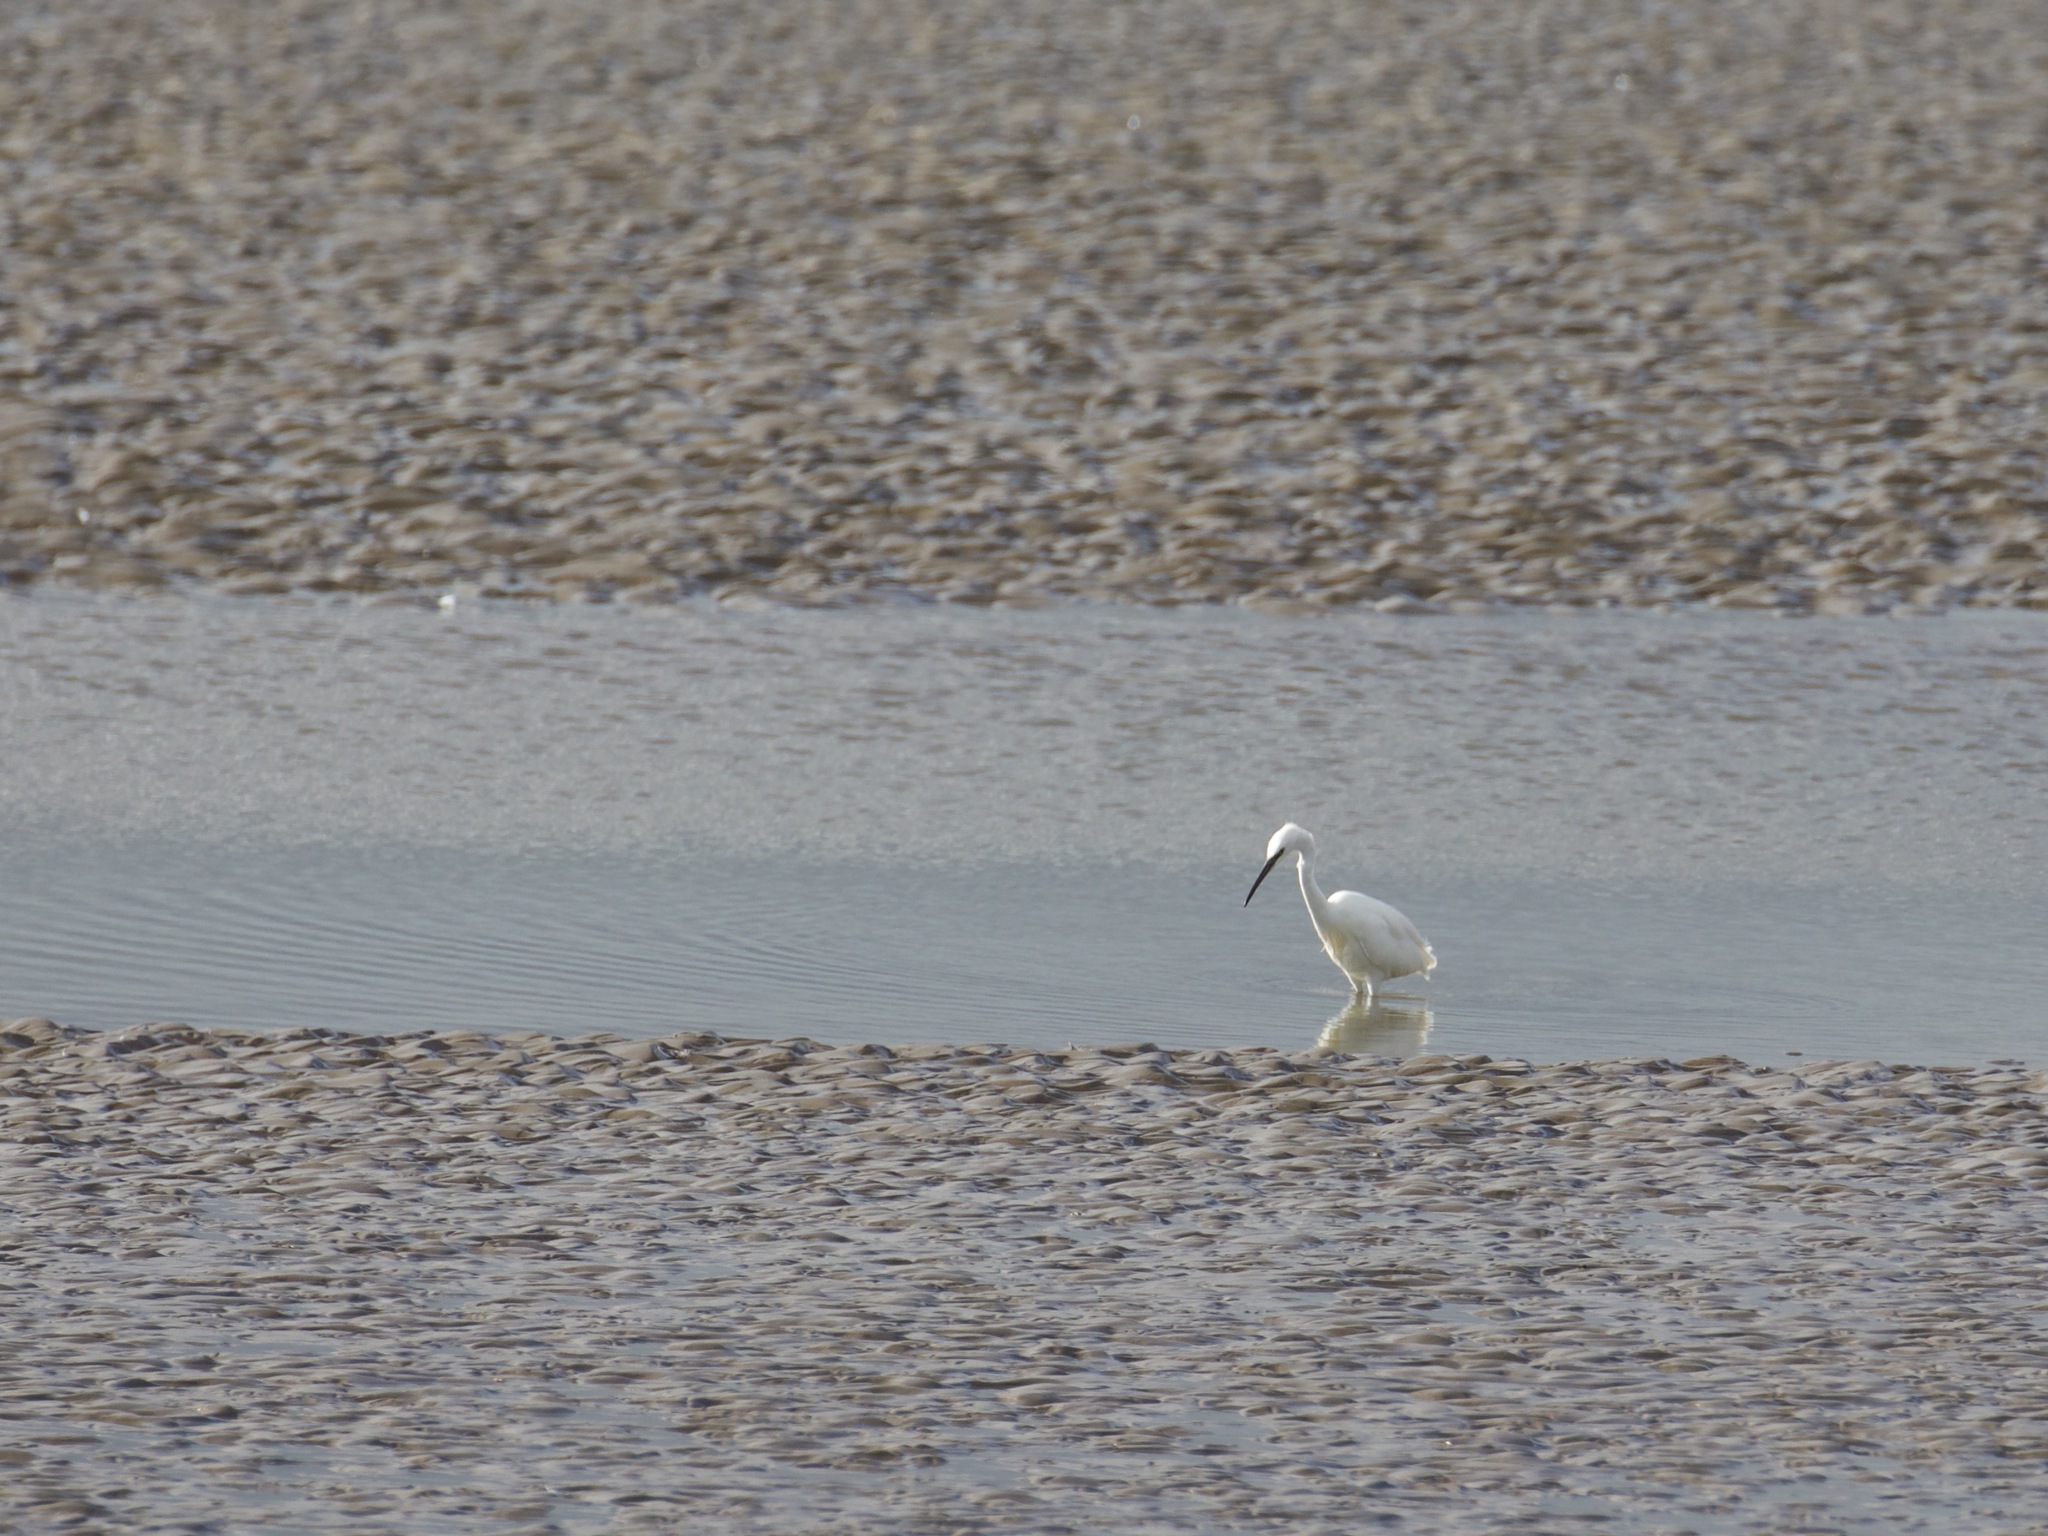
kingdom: Animalia
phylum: Chordata
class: Aves
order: Pelecaniformes
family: Ardeidae
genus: Egretta
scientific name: Egretta garzetta
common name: Little egret
